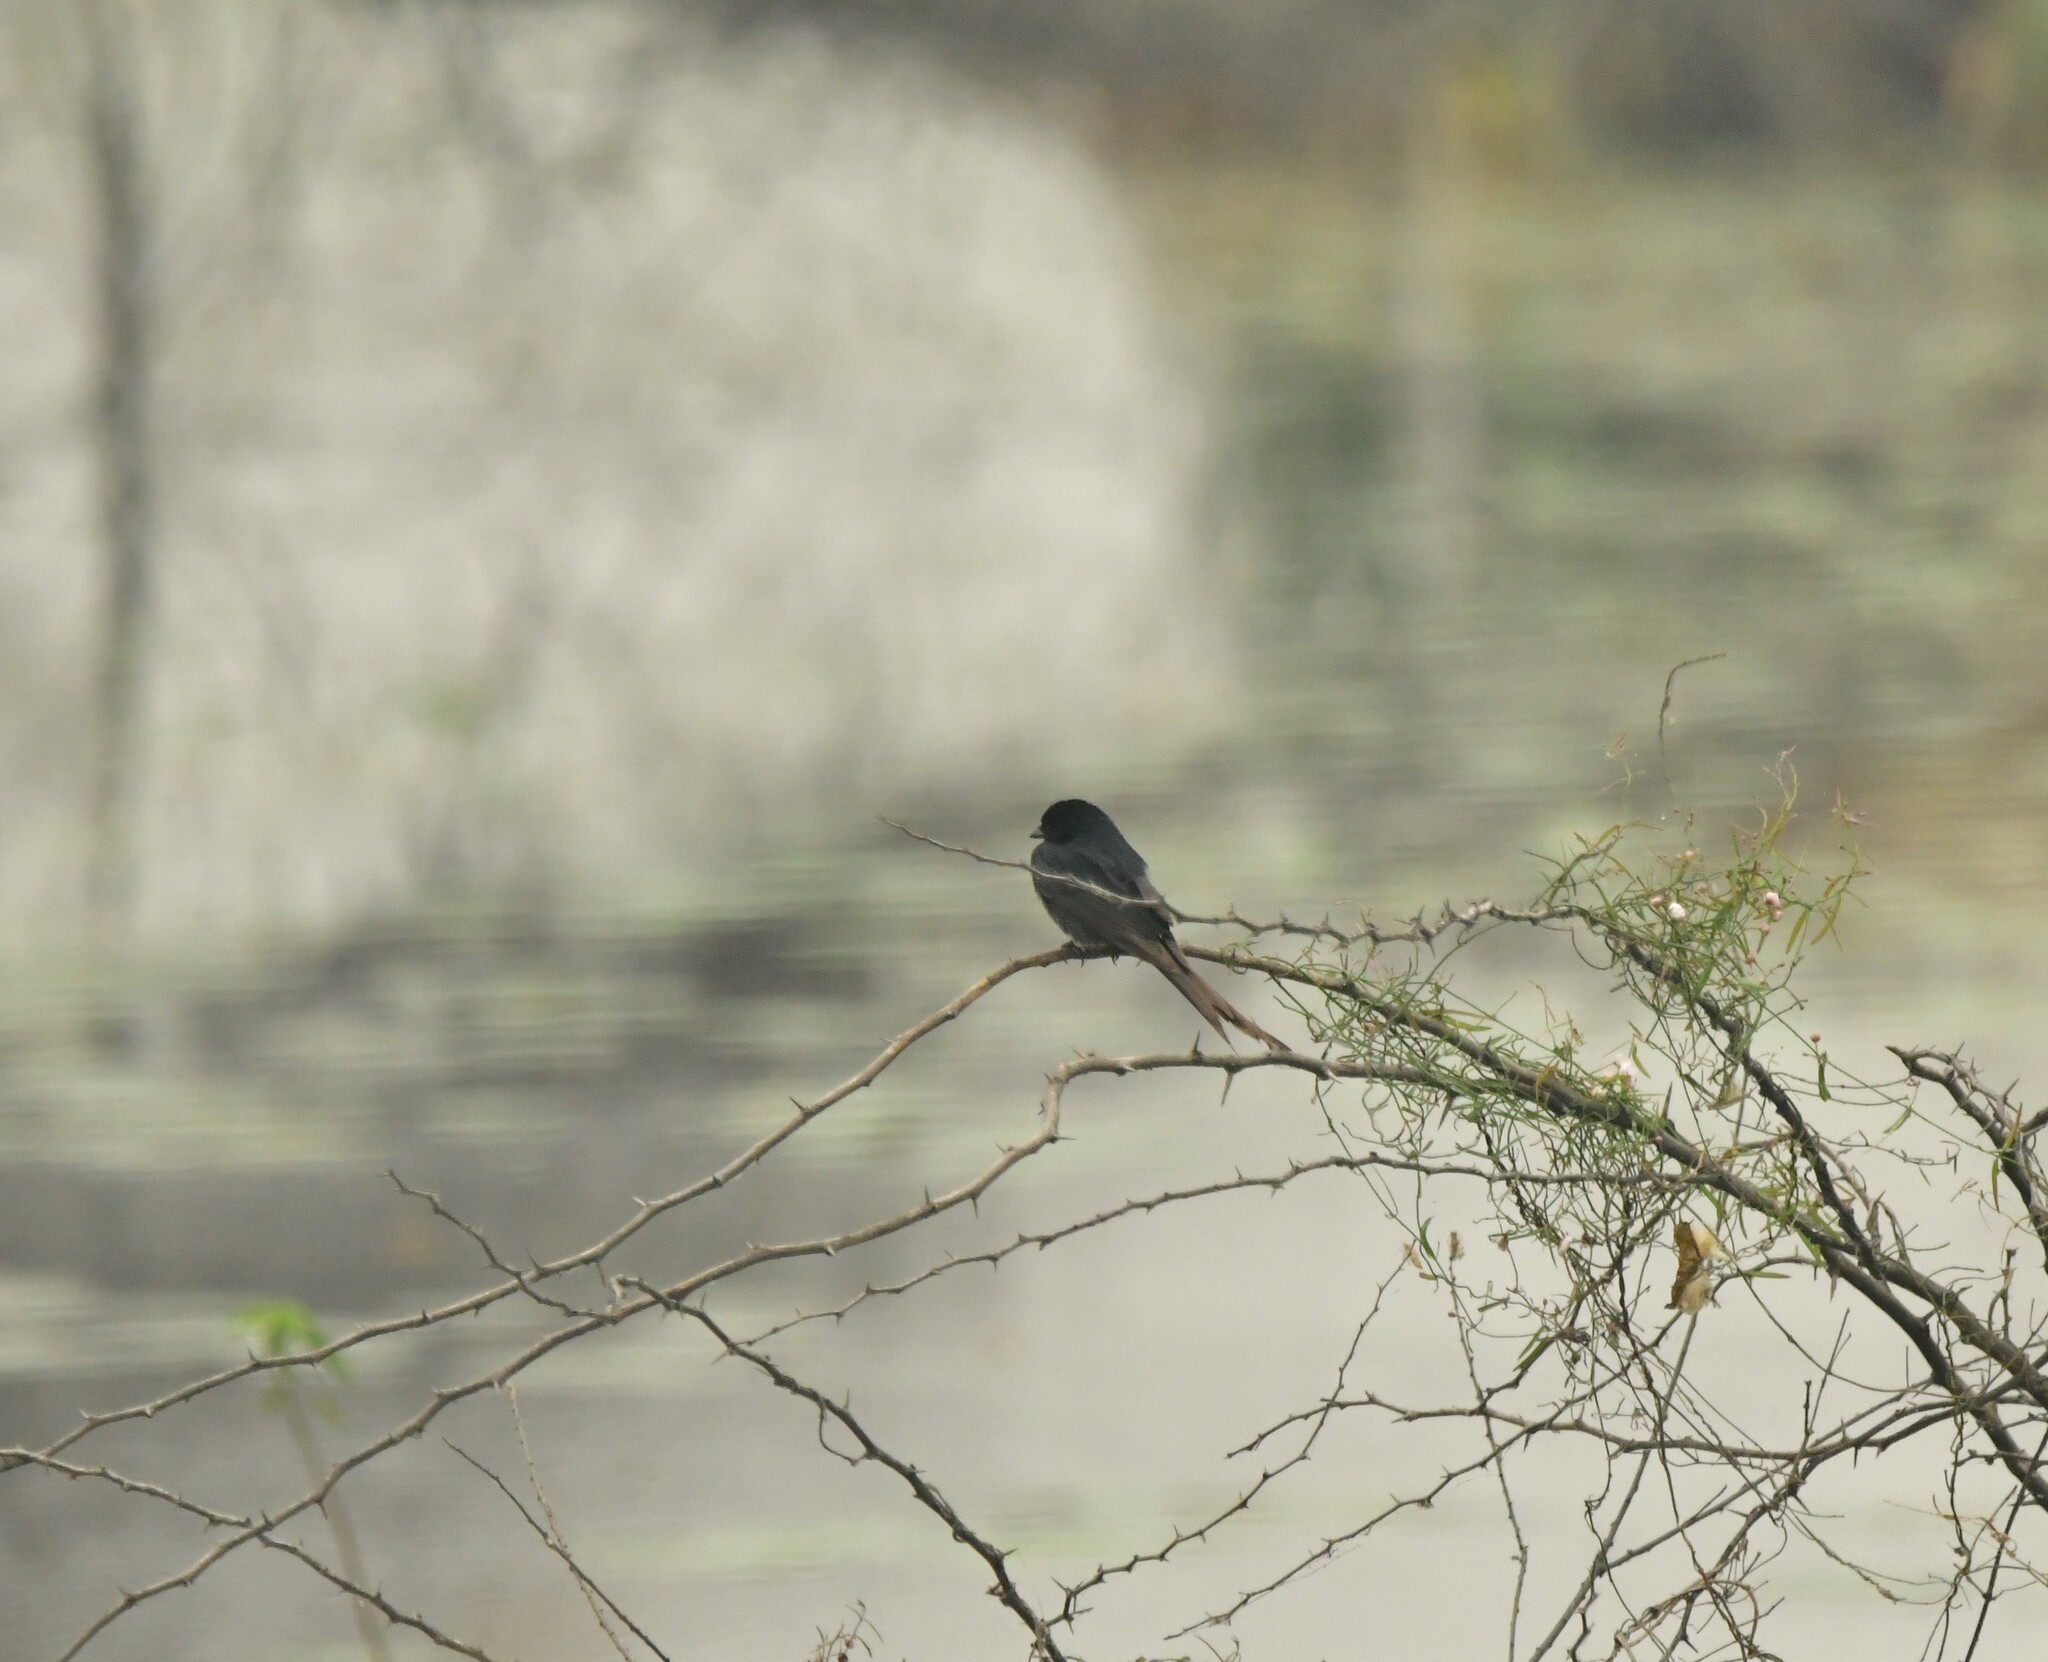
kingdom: Animalia
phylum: Chordata
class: Aves
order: Passeriformes
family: Dicruridae
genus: Dicrurus
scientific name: Dicrurus macrocercus
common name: Black drongo
